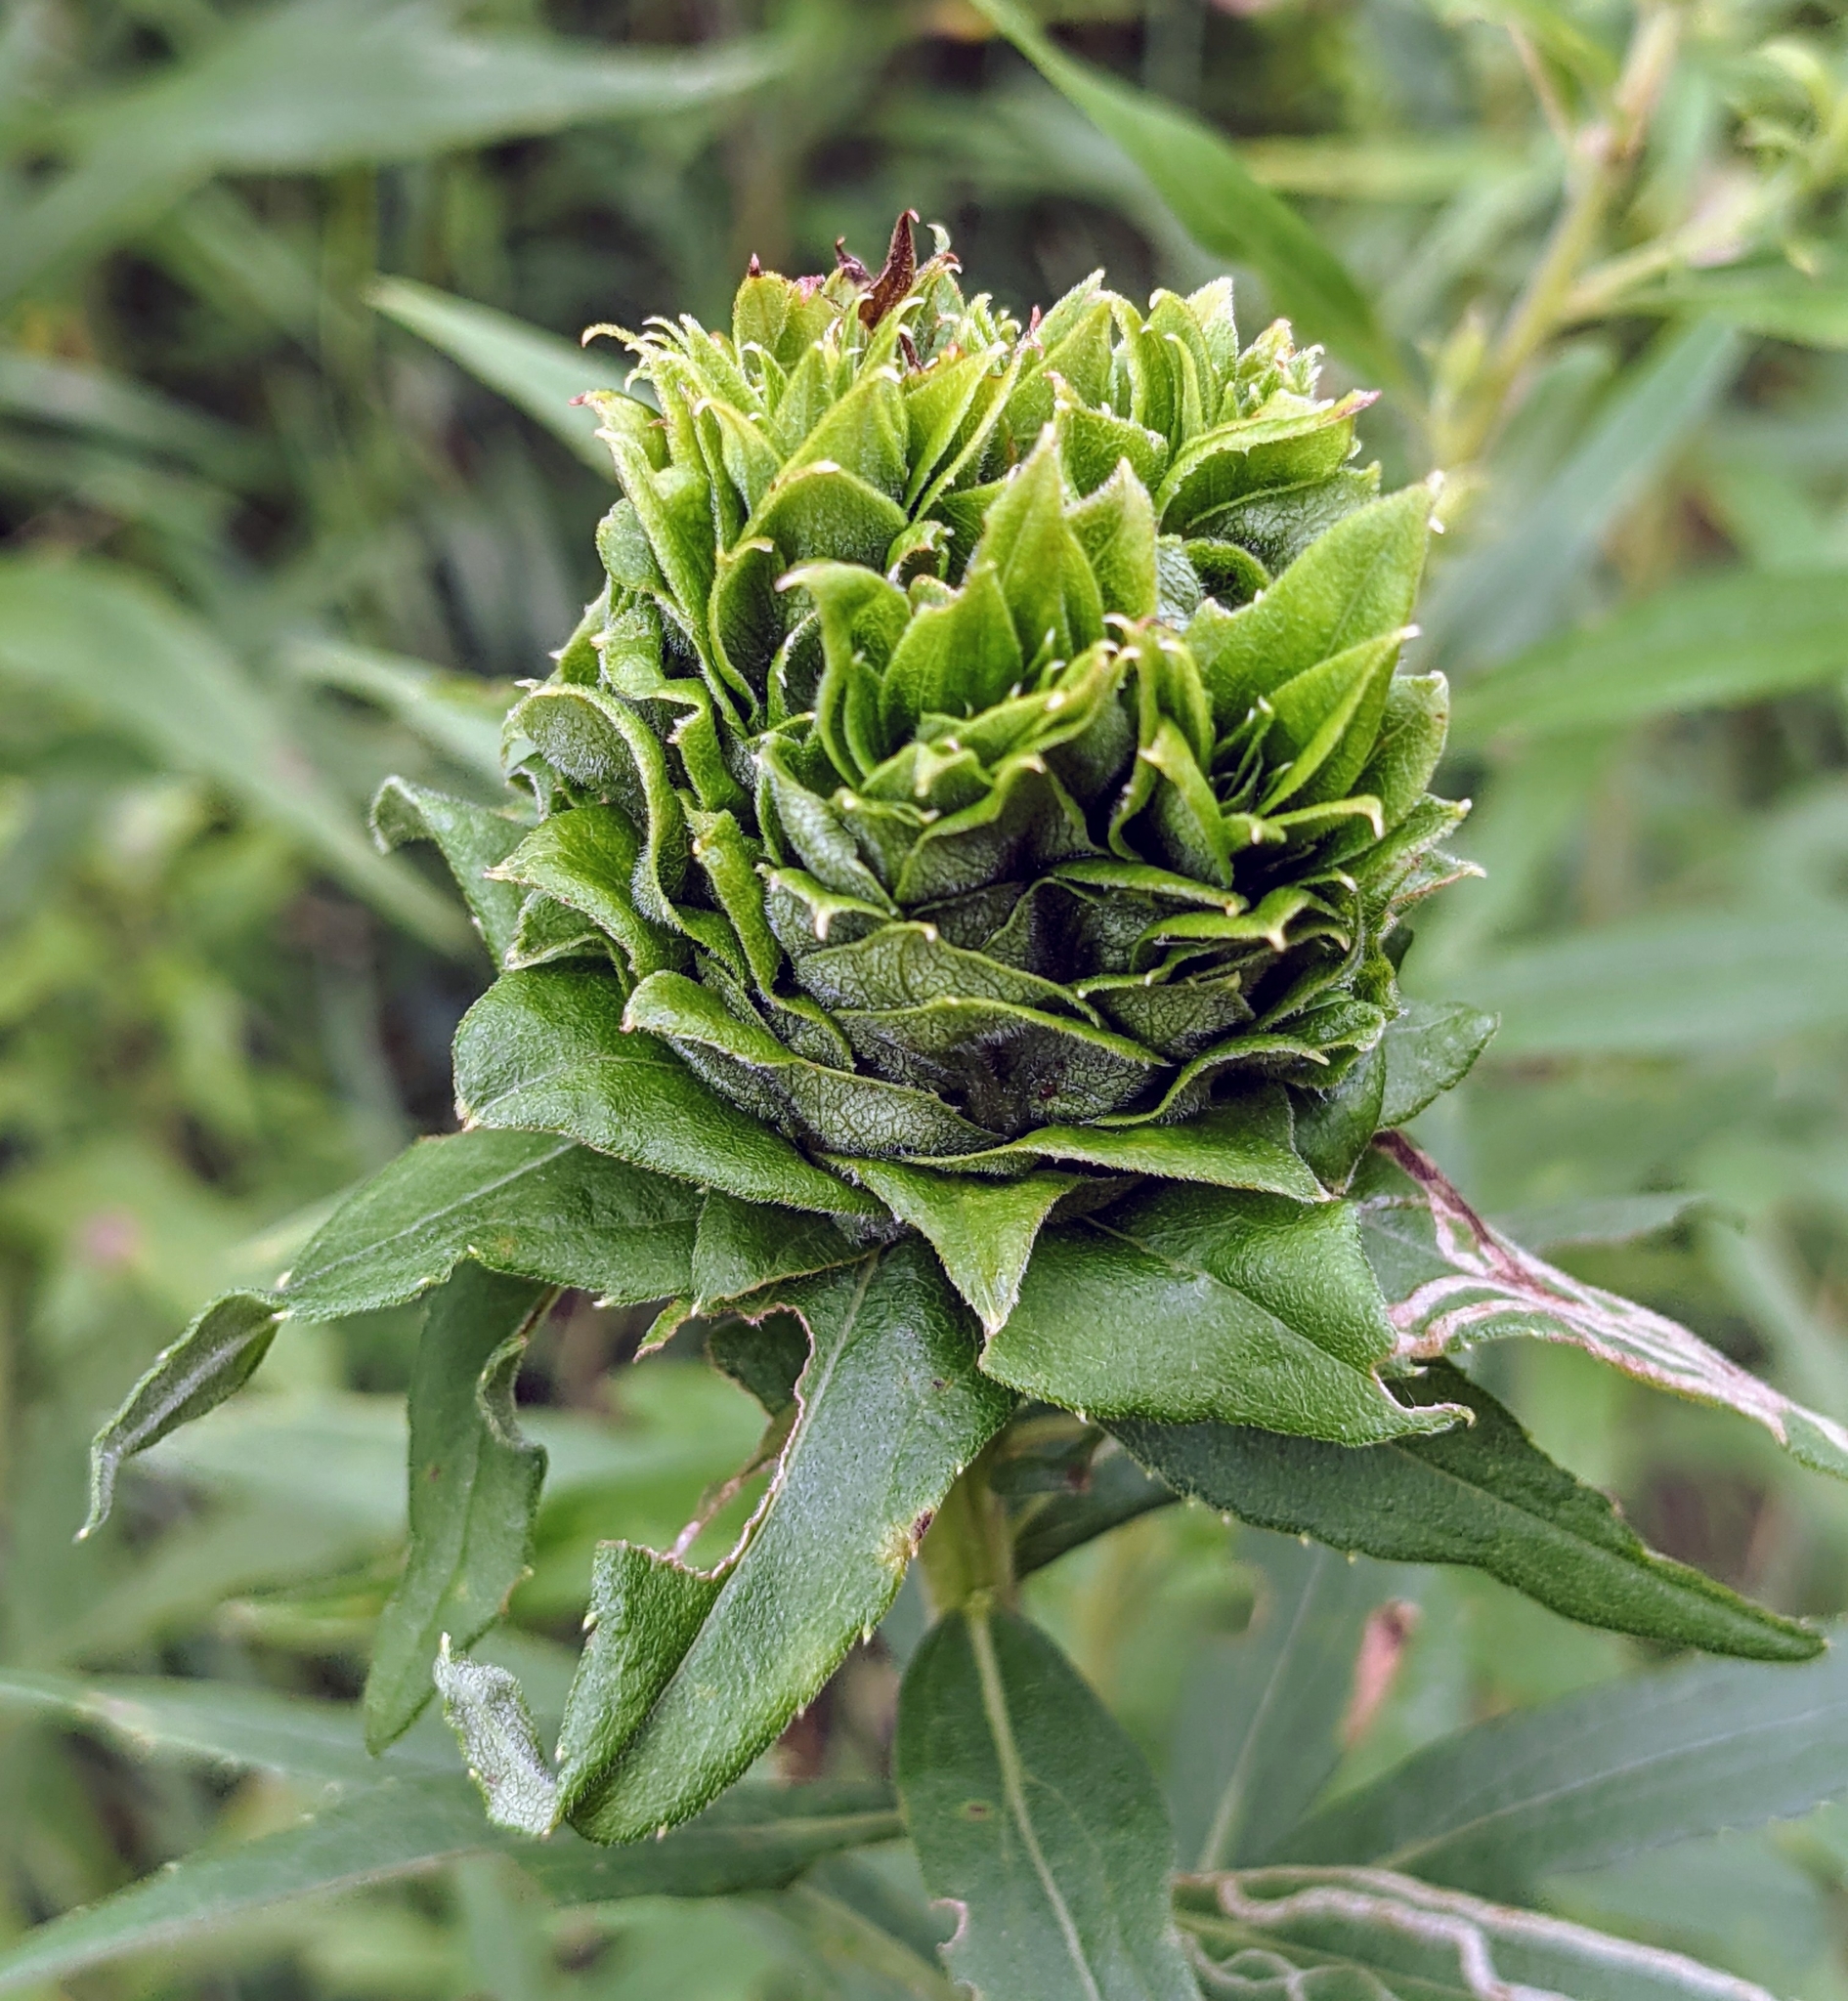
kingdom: Animalia
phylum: Arthropoda
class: Insecta
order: Diptera
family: Cecidomyiidae
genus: Rhopalomyia
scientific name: Rhopalomyia solidaginis
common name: Goldenrod bunch gall midge
